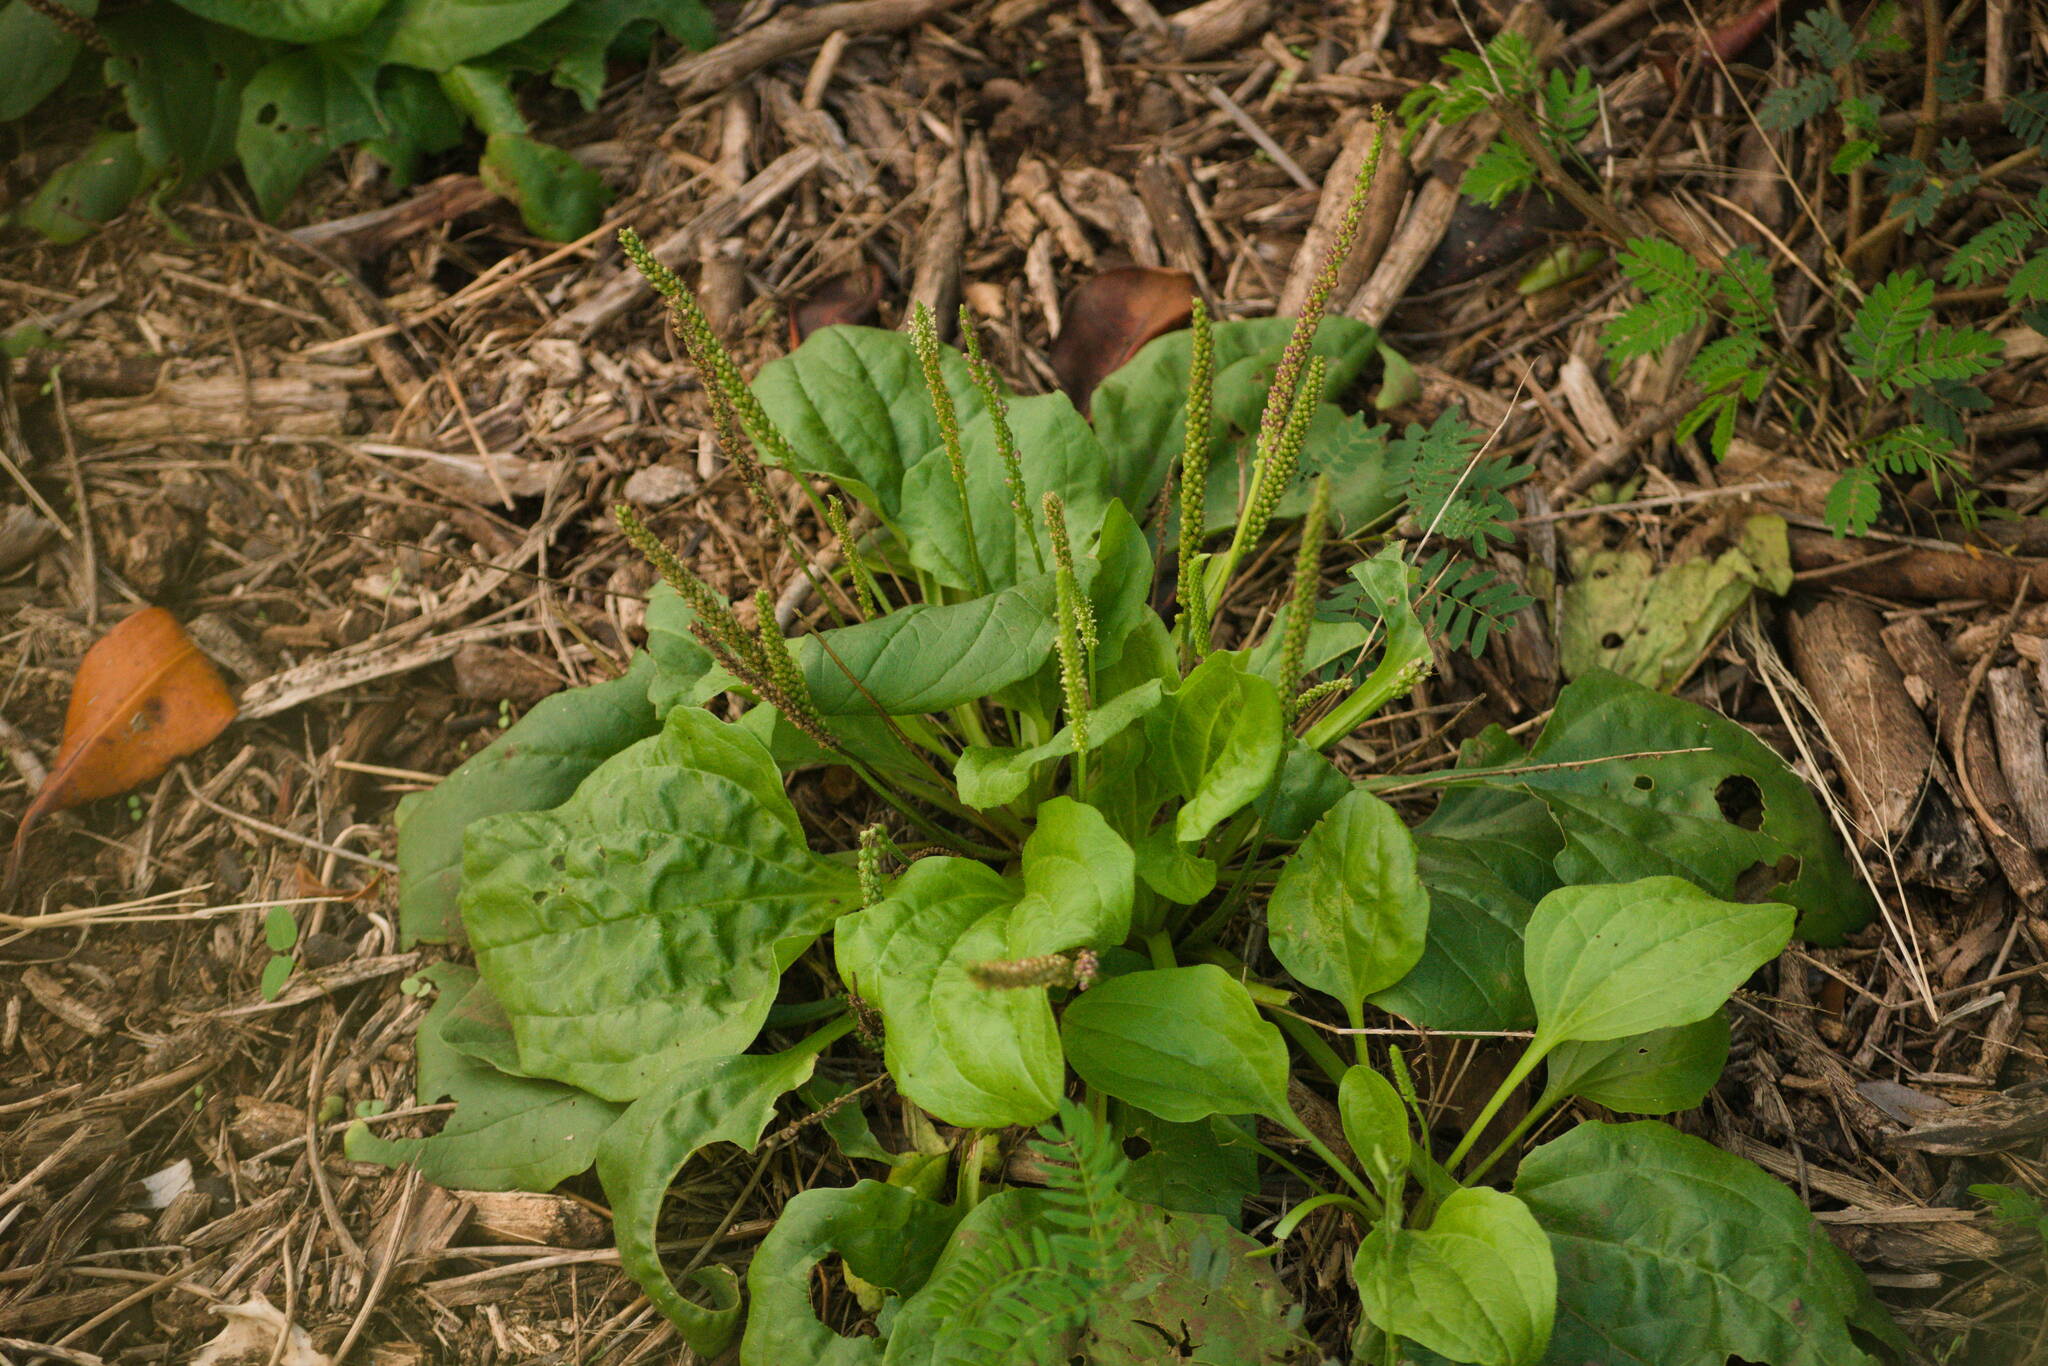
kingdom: Plantae
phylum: Tracheophyta
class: Magnoliopsida
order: Lamiales
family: Plantaginaceae
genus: Plantago
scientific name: Plantago major
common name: Common plantain
